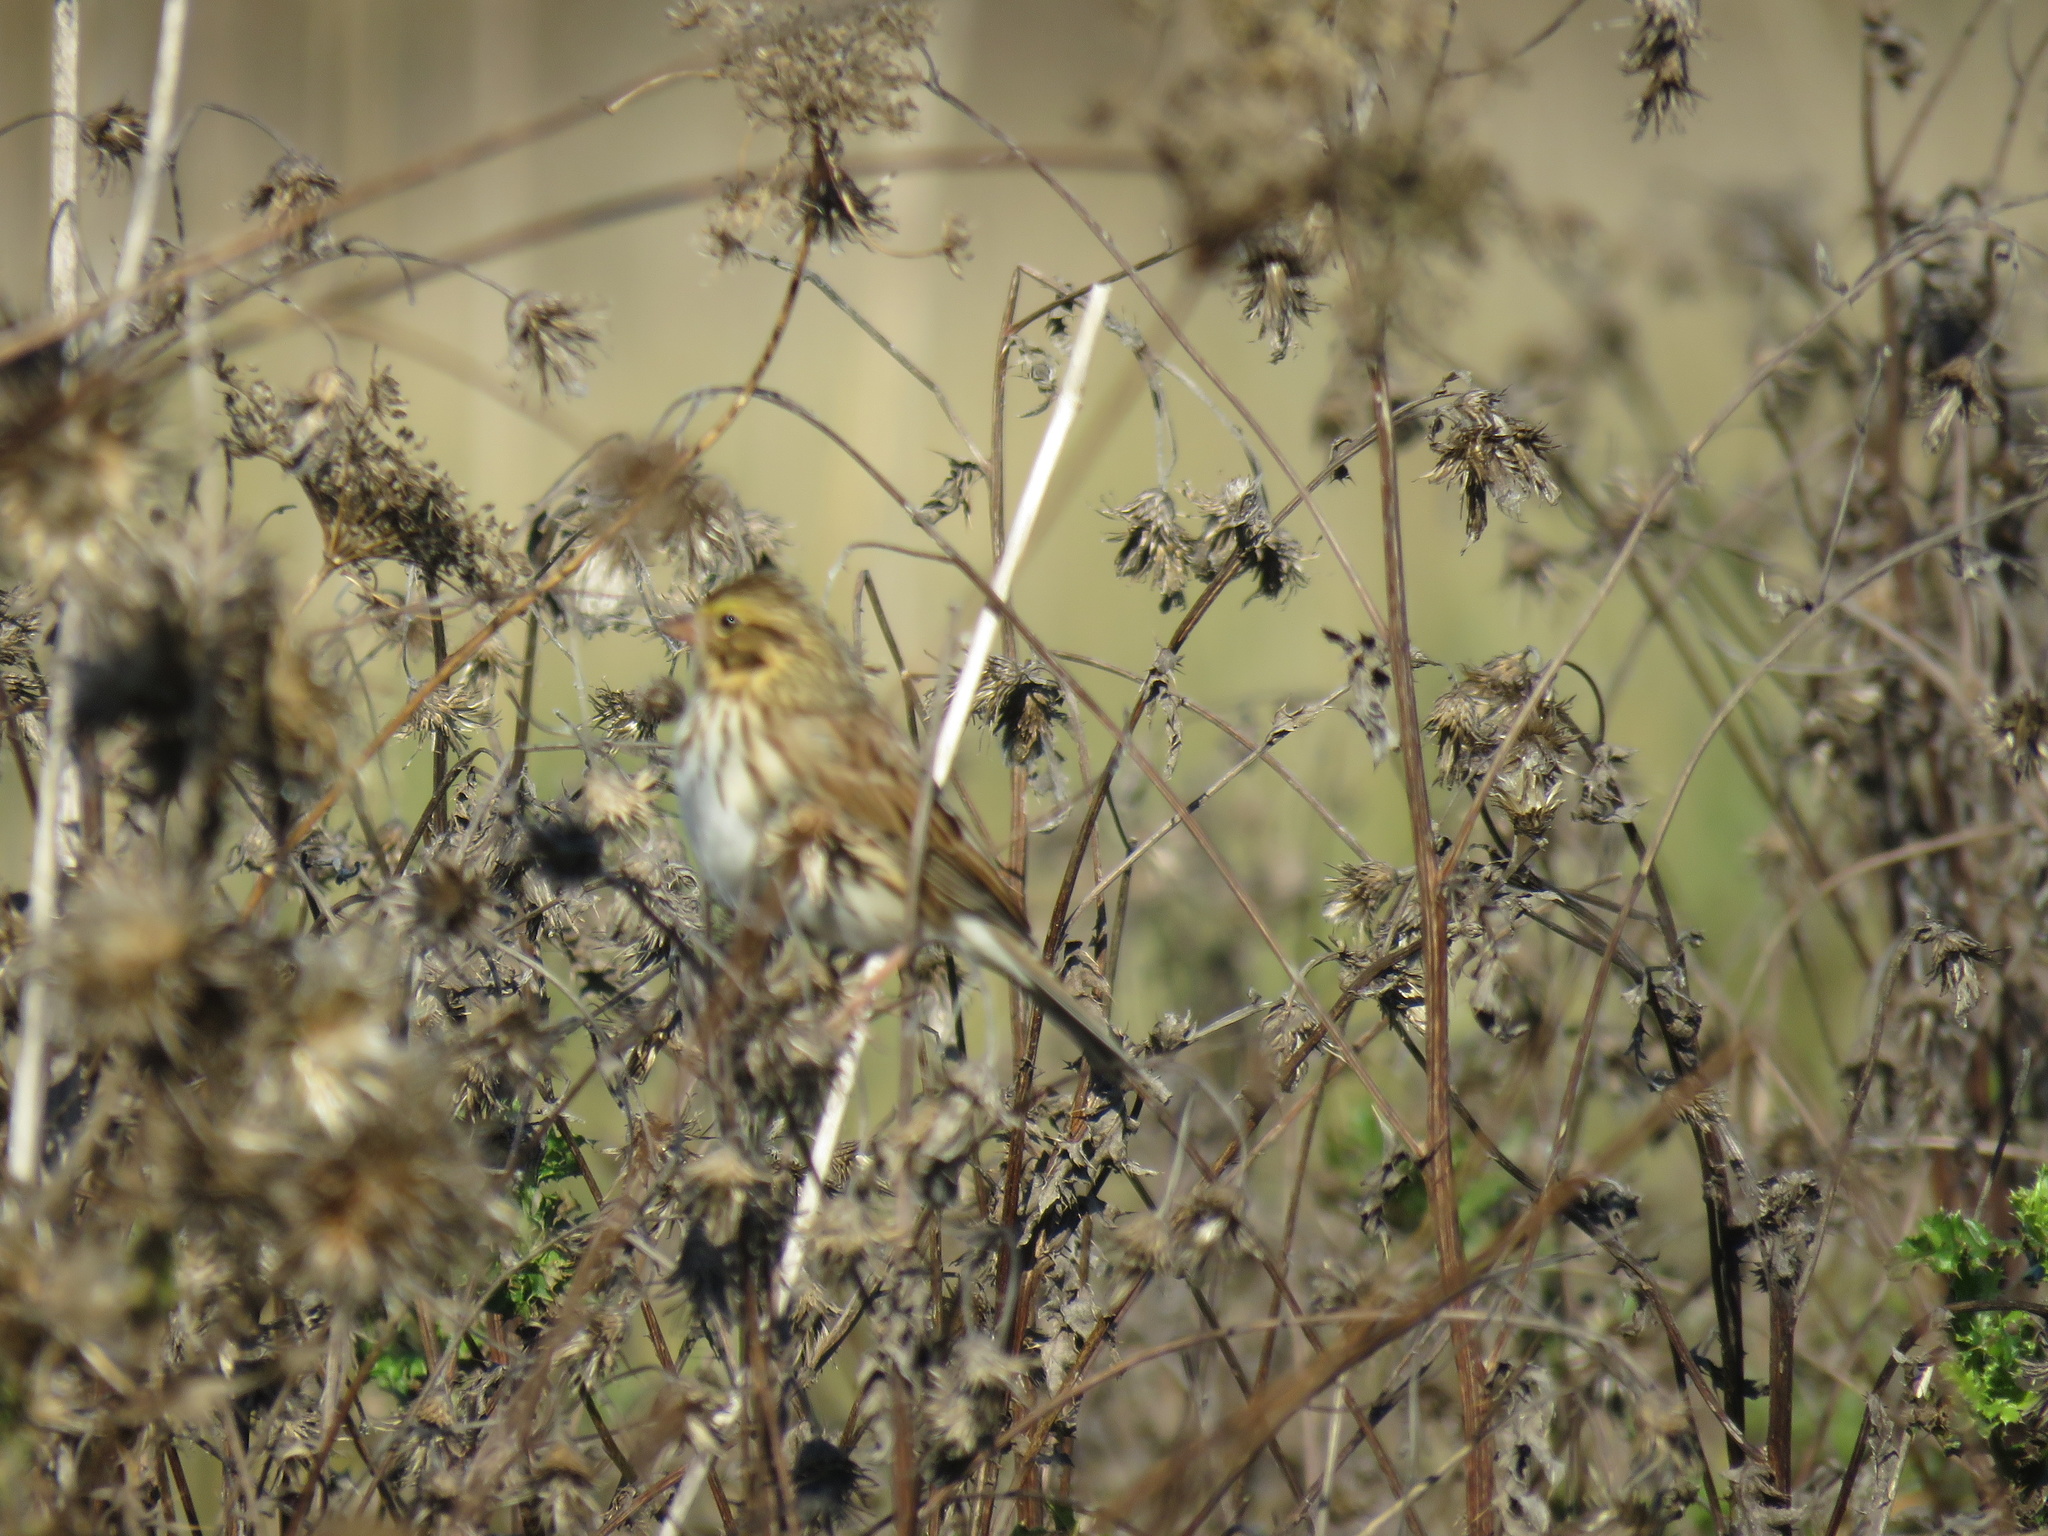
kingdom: Animalia
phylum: Chordata
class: Aves
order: Passeriformes
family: Passerellidae
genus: Passerculus
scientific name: Passerculus sandwichensis
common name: Savannah sparrow
